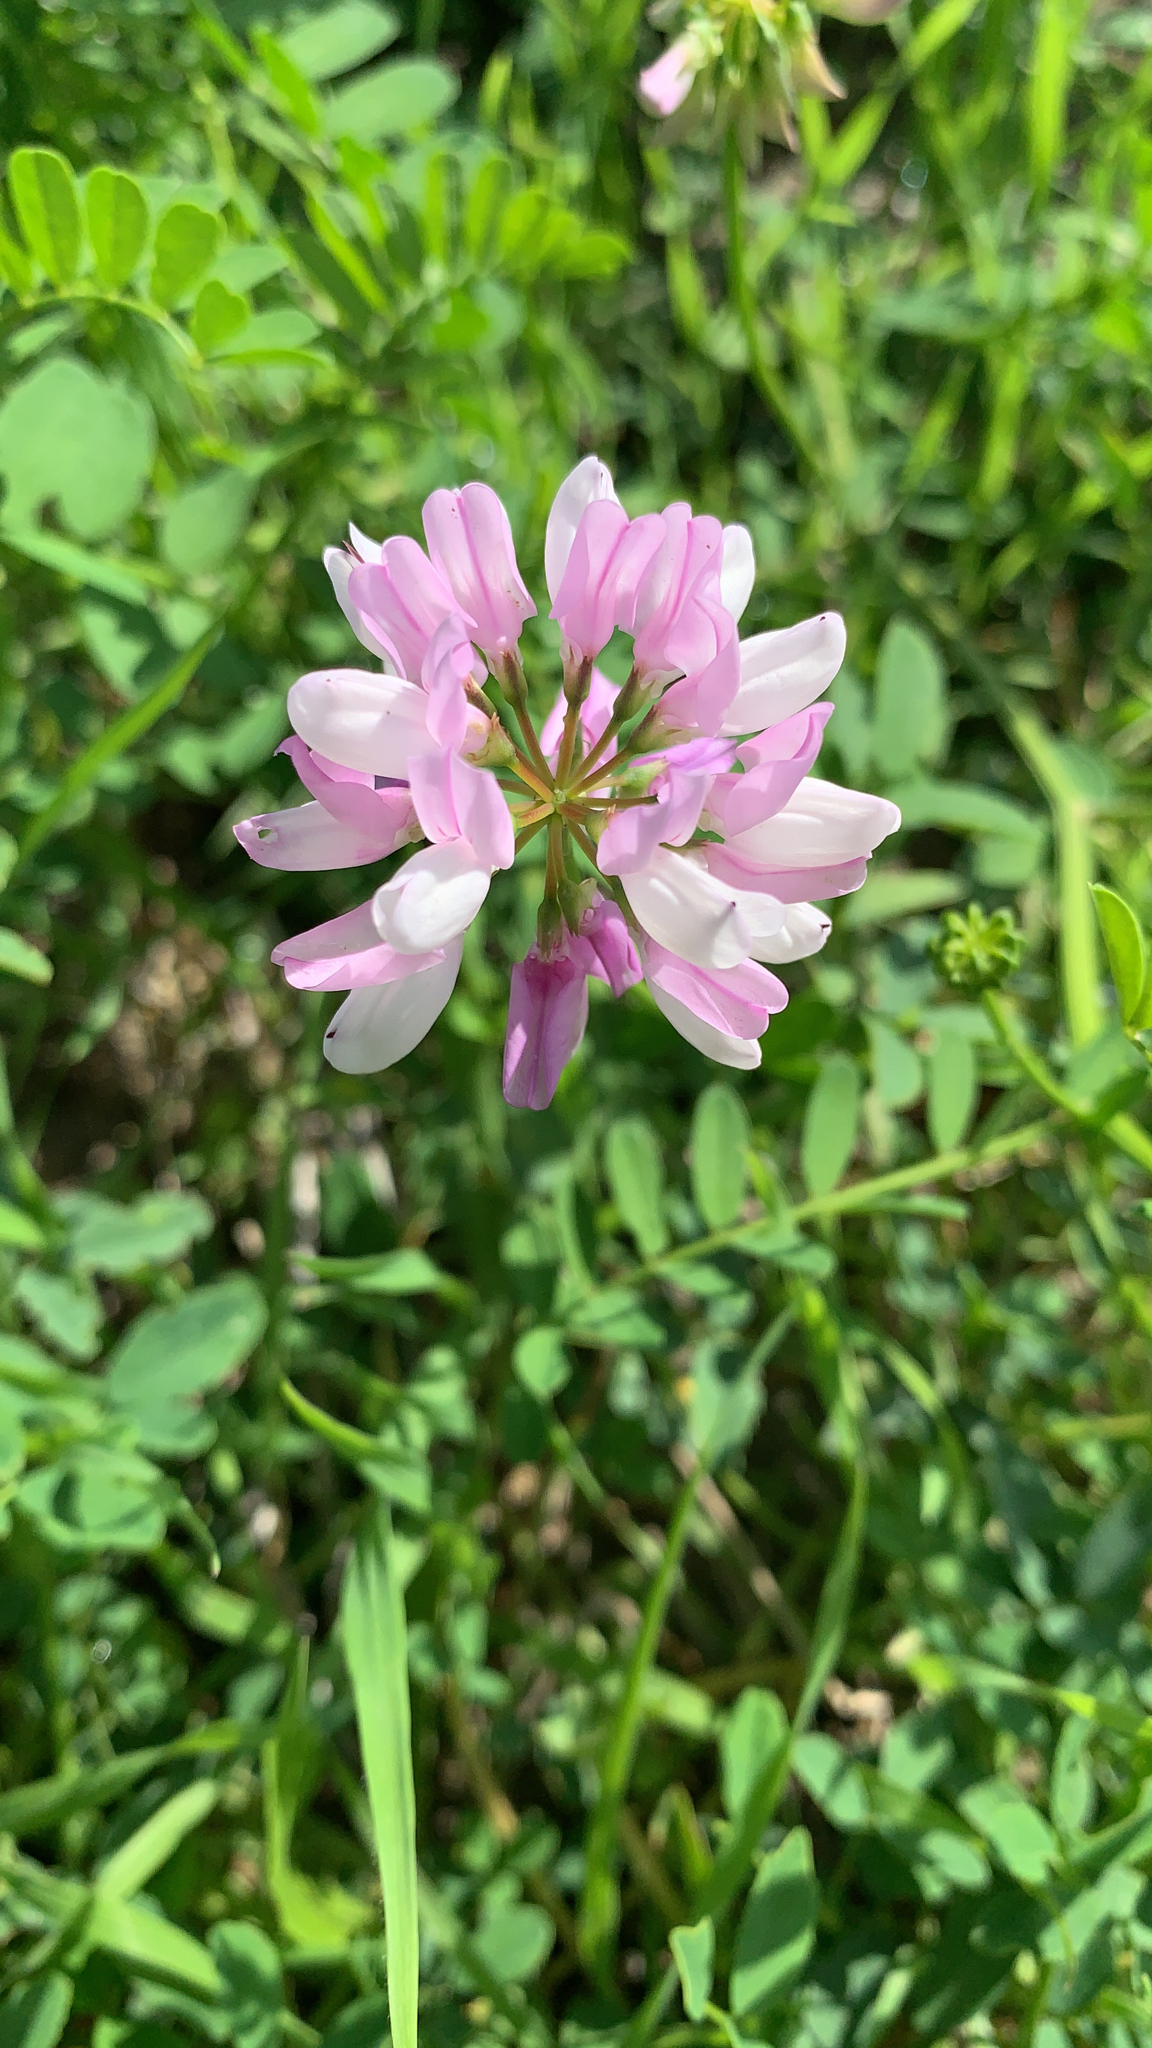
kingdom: Plantae
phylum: Tracheophyta
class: Magnoliopsida
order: Fabales
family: Fabaceae
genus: Coronilla
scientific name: Coronilla varia
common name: Crownvetch
